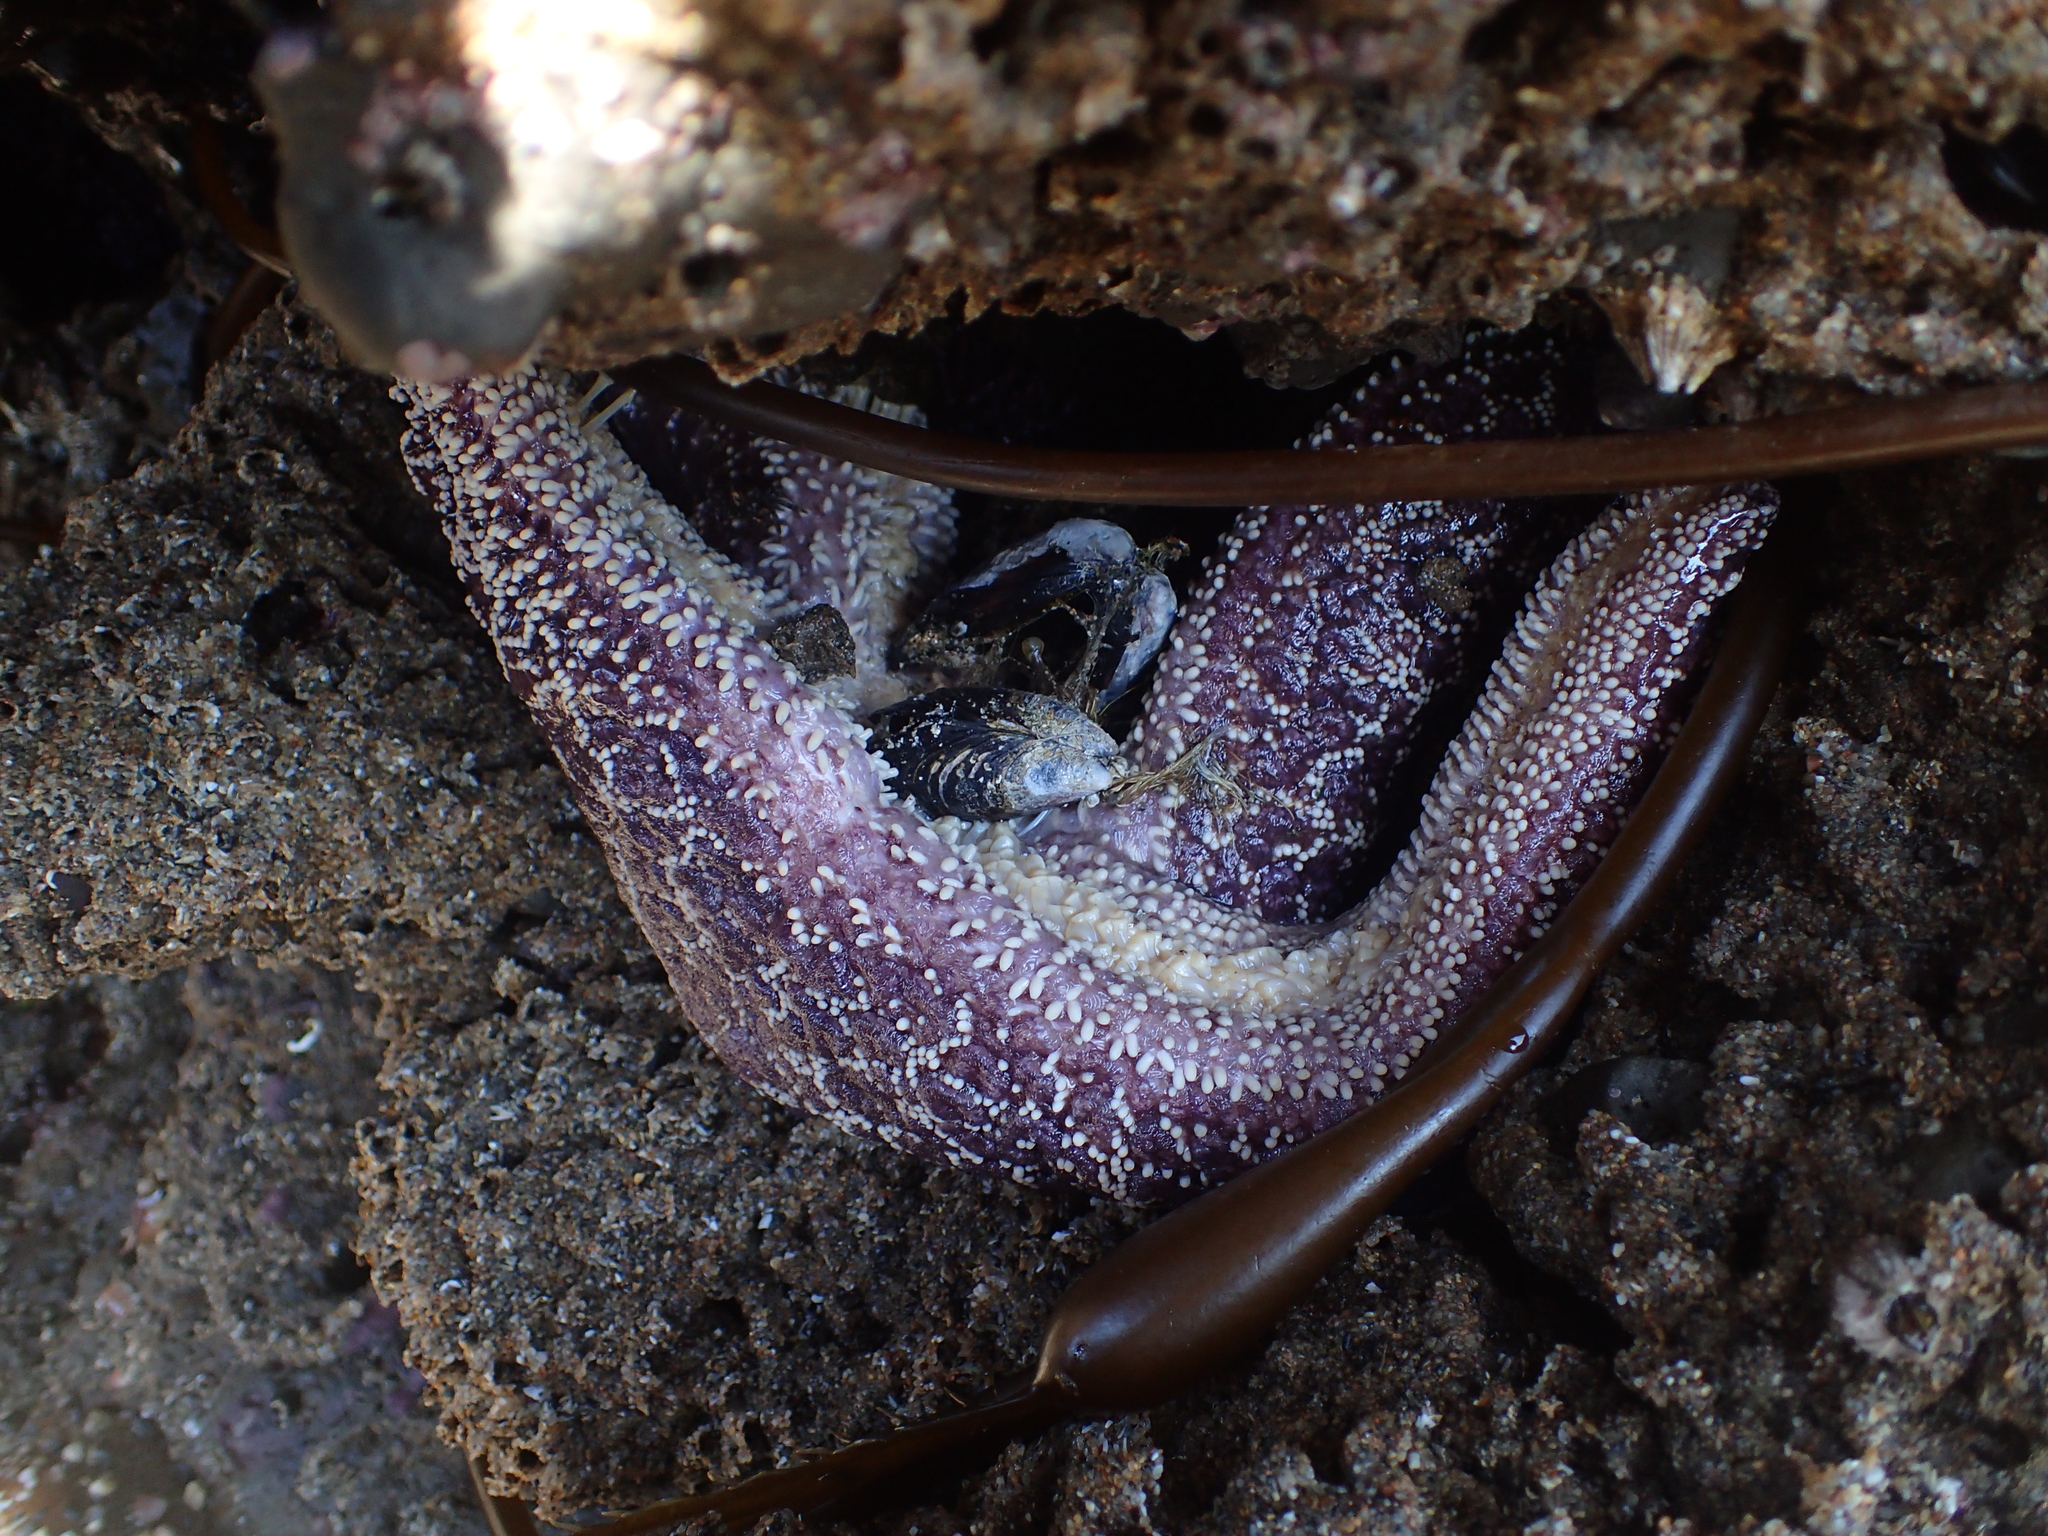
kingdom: Animalia
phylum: Echinodermata
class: Asteroidea
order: Forcipulatida
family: Asteriidae
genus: Pisaster
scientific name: Pisaster ochraceus
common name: Ochre stars
